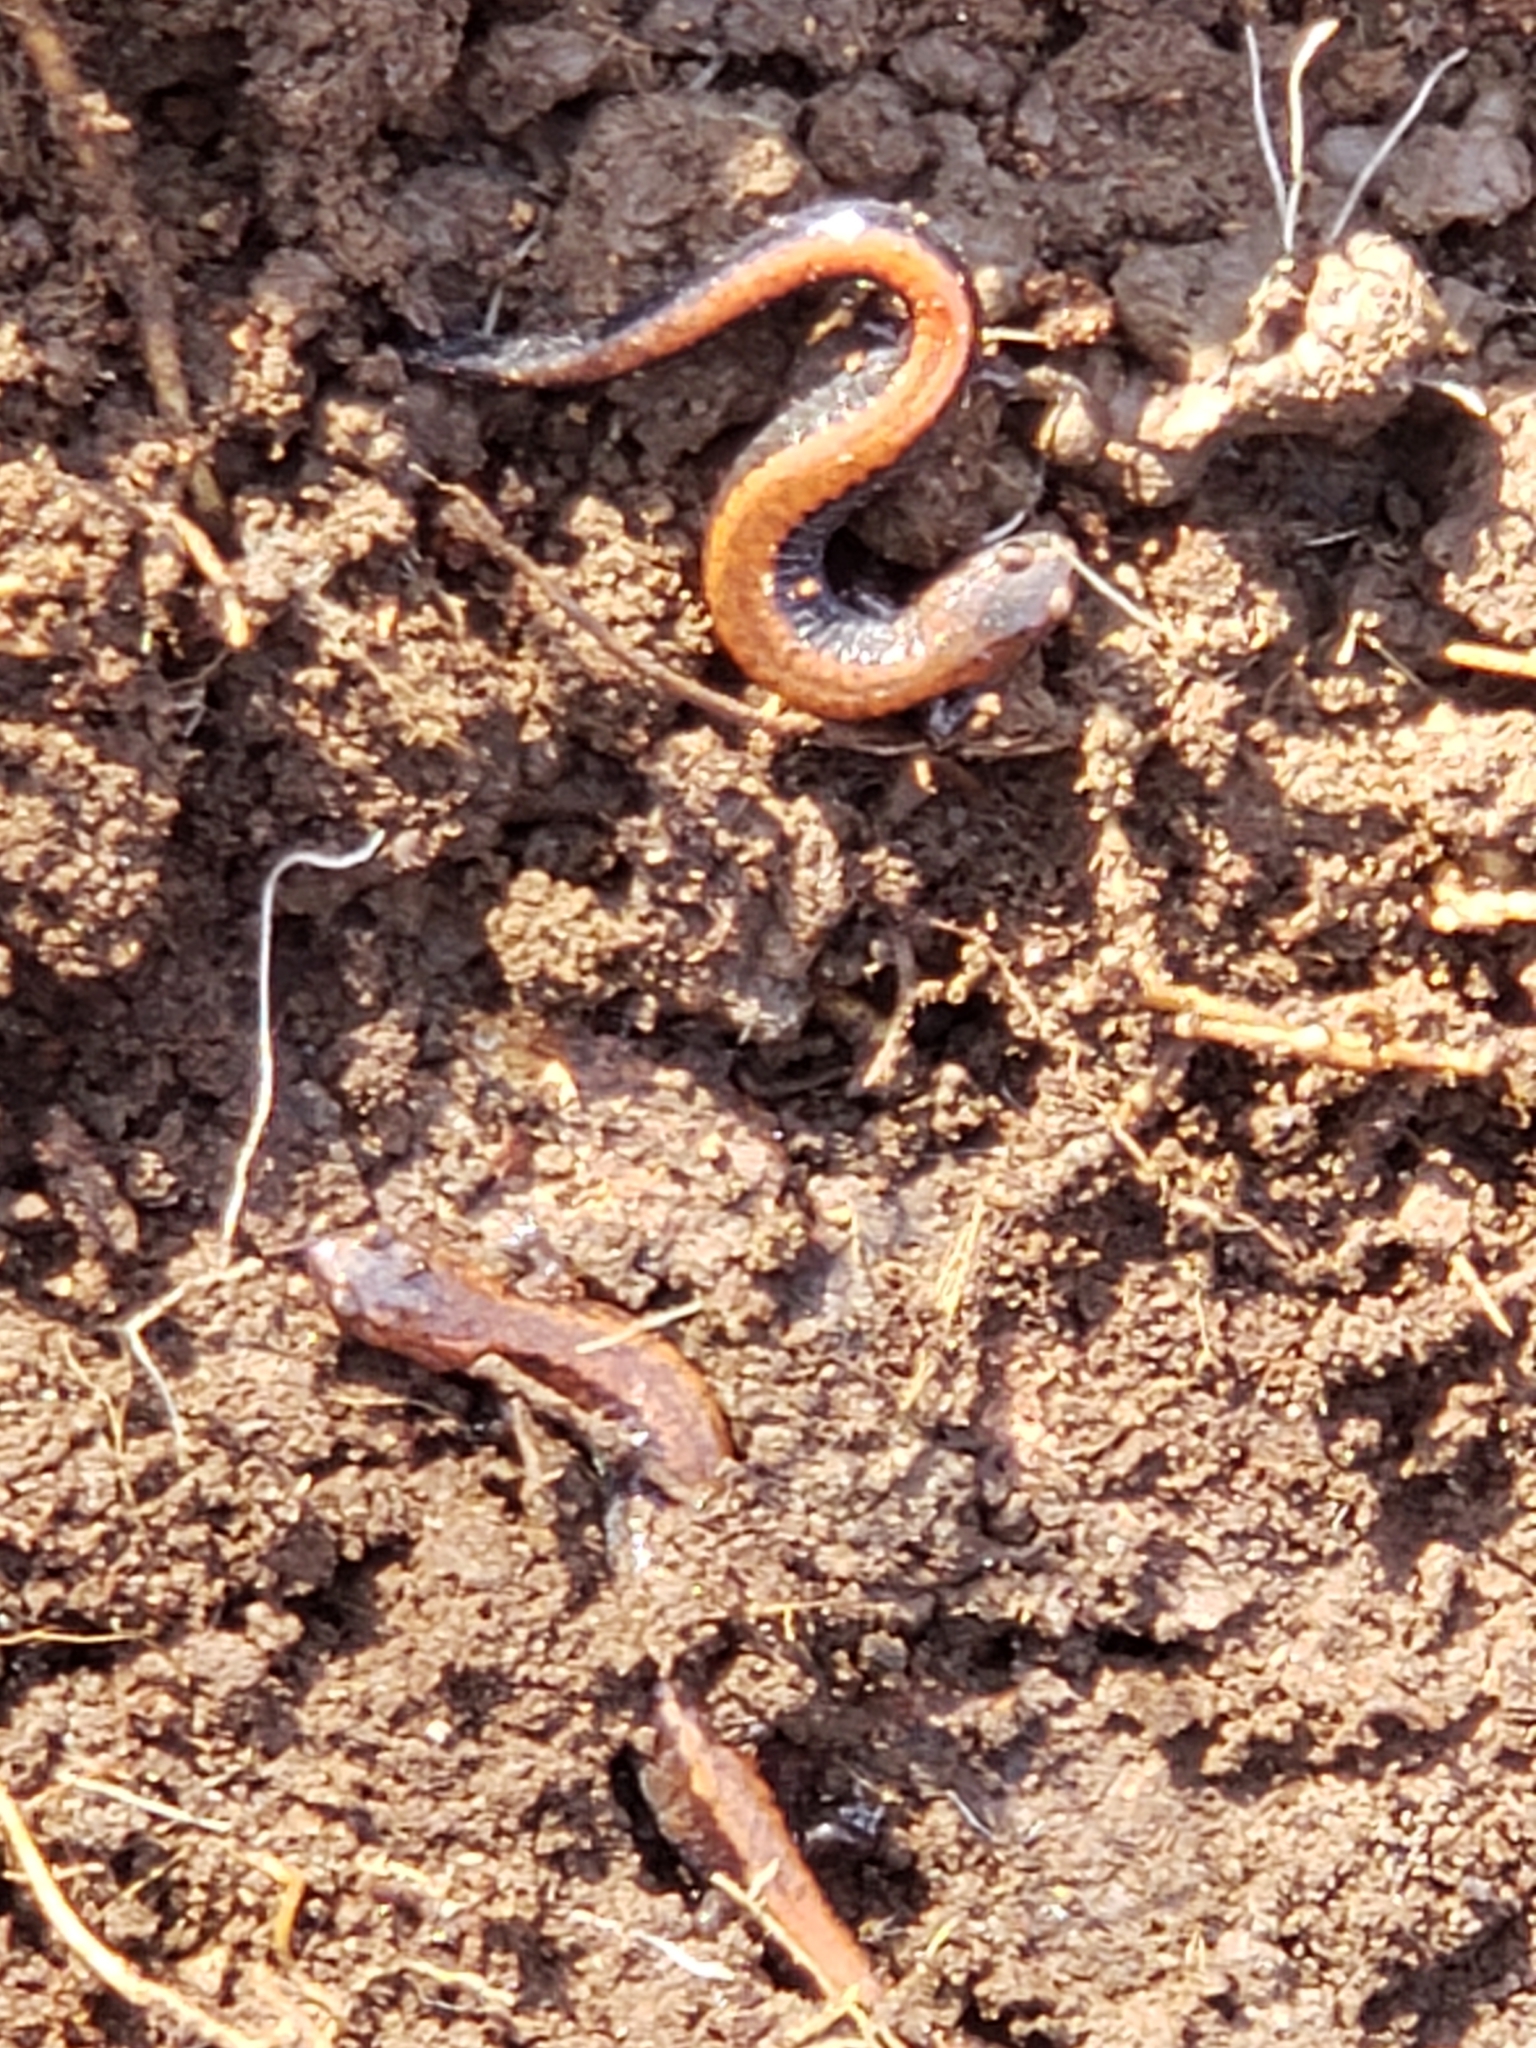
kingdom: Animalia
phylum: Chordata
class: Amphibia
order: Caudata
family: Plethodontidae
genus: Plethodon
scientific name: Plethodon cinereus
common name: Redback salamander
